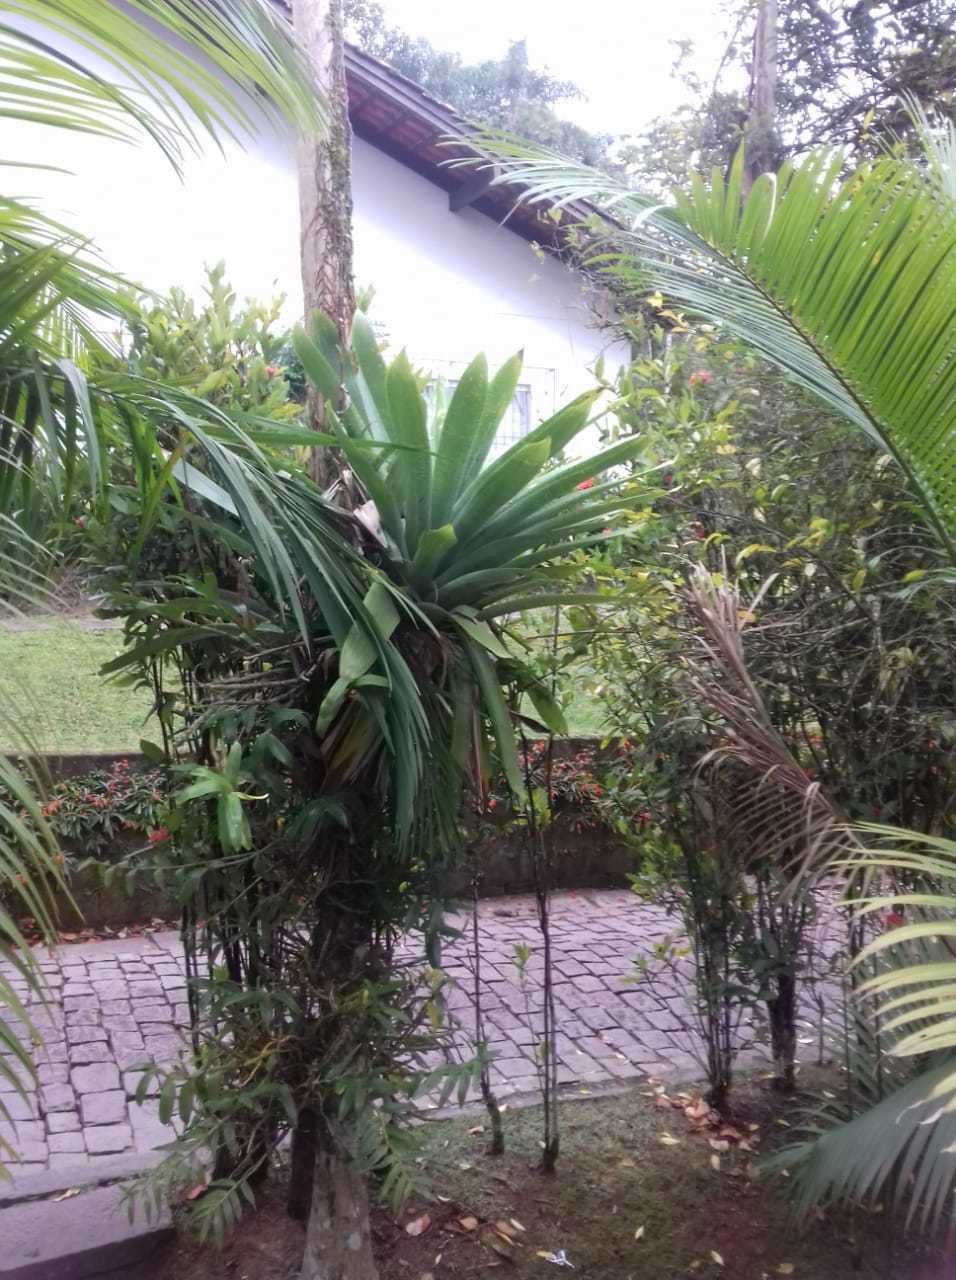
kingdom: Plantae
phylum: Tracheophyta
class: Liliopsida
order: Poales
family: Bromeliaceae
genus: Vriesea
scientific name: Vriesea gigantea
